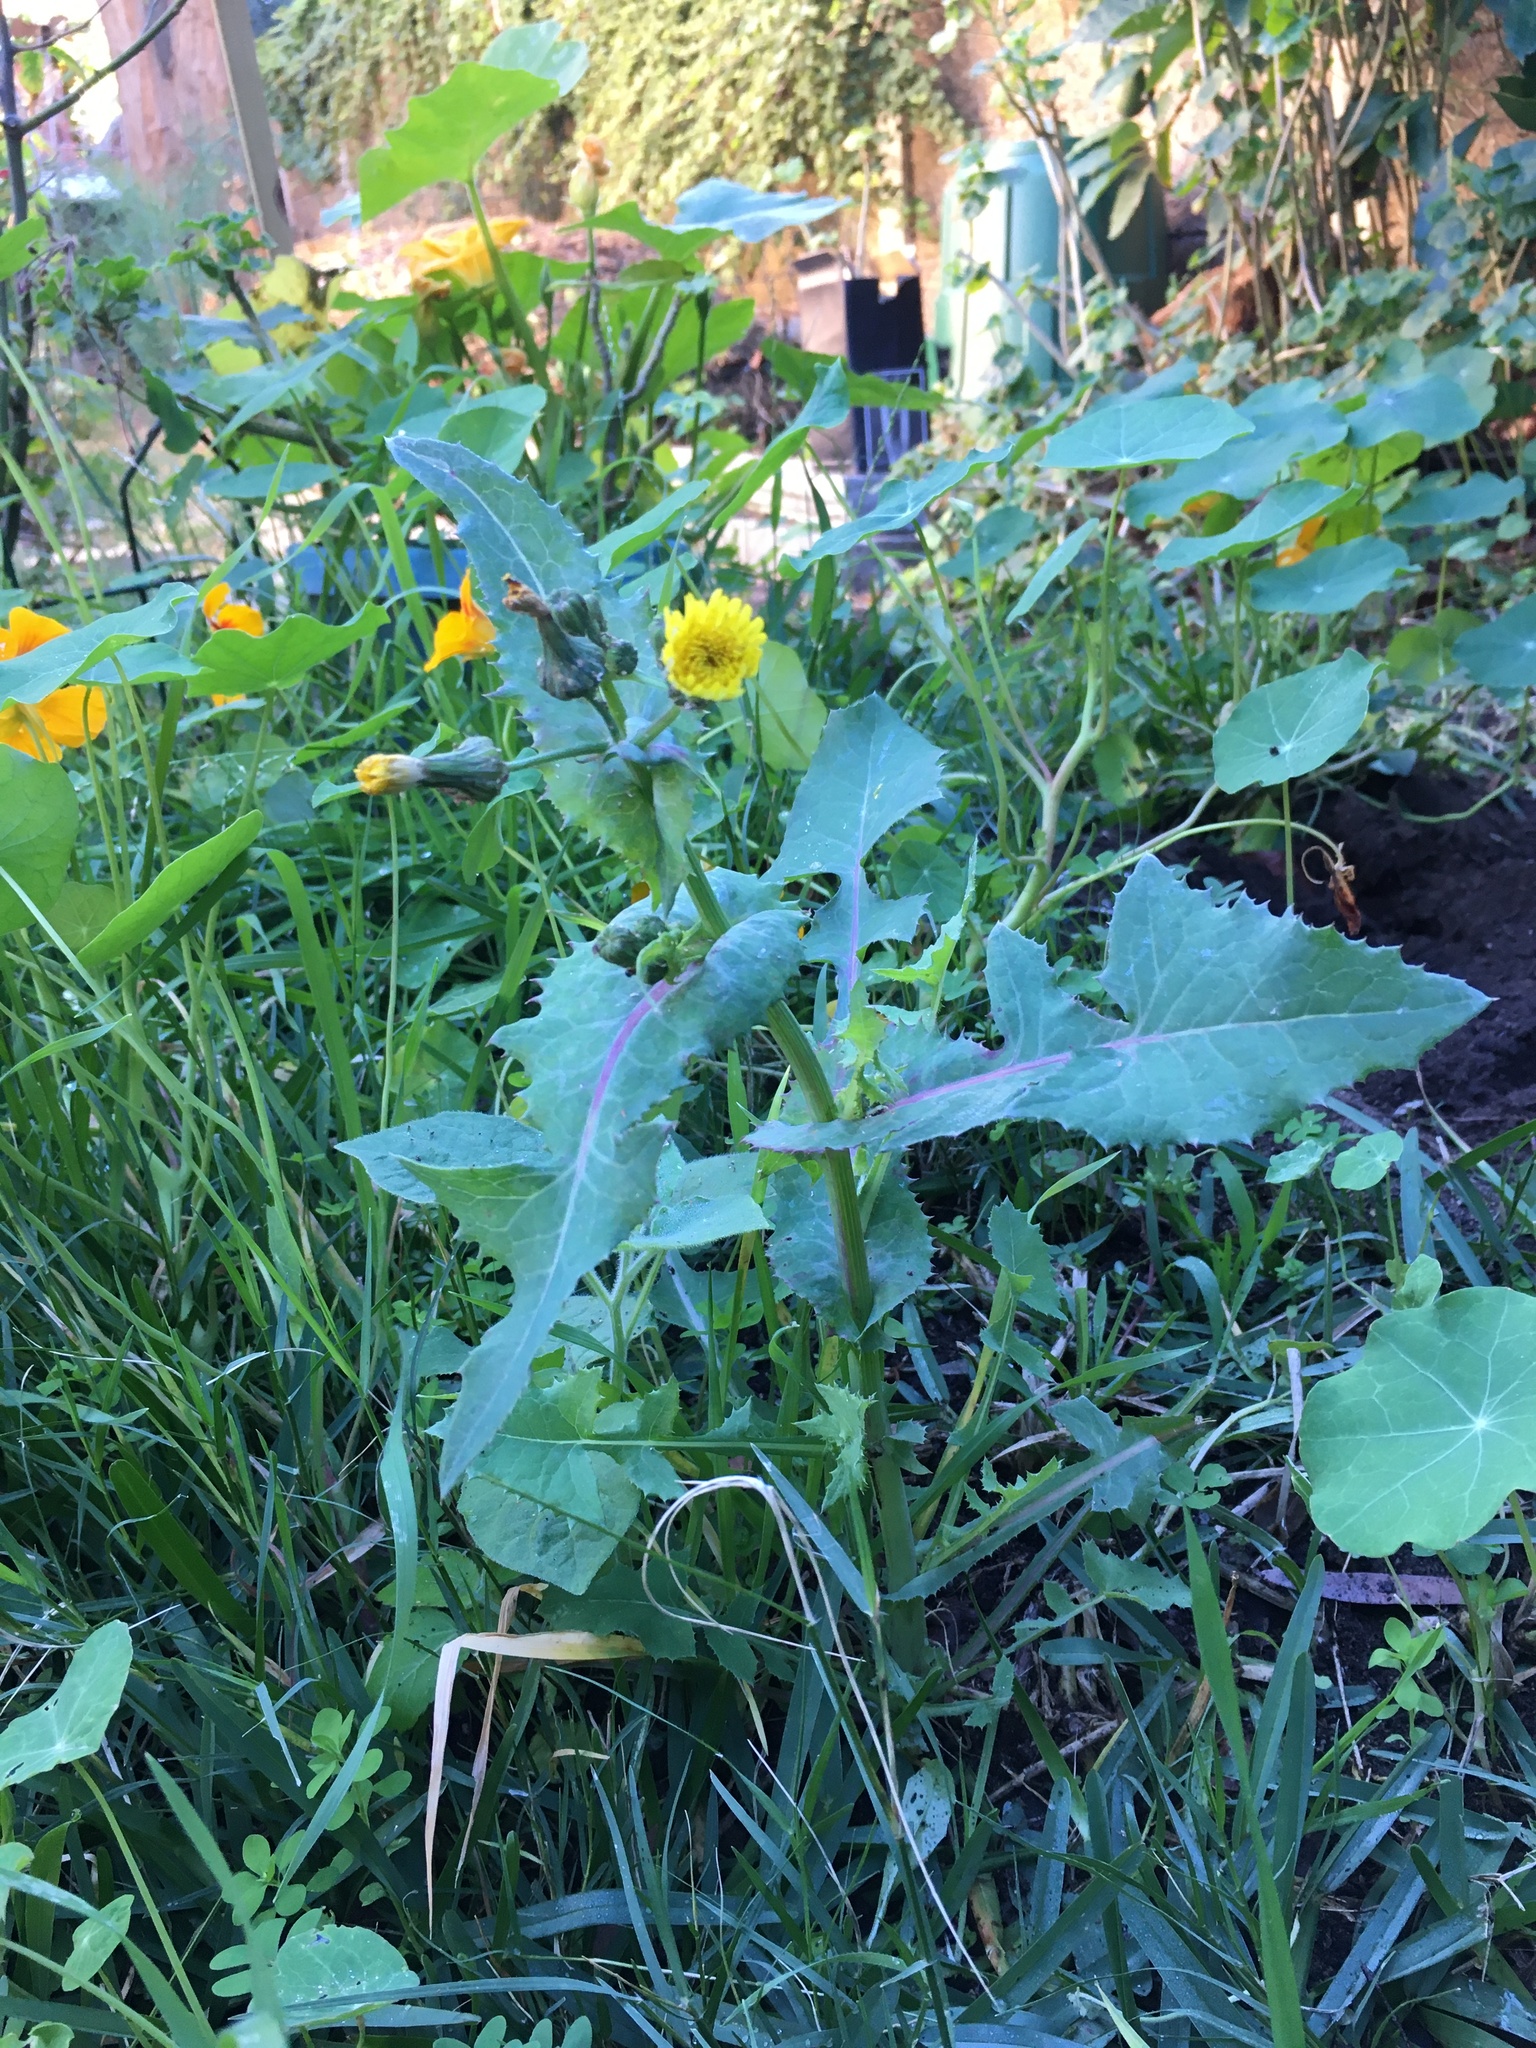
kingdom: Plantae
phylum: Tracheophyta
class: Magnoliopsida
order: Asterales
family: Asteraceae
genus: Sonchus
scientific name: Sonchus oleraceus
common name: Common sowthistle
